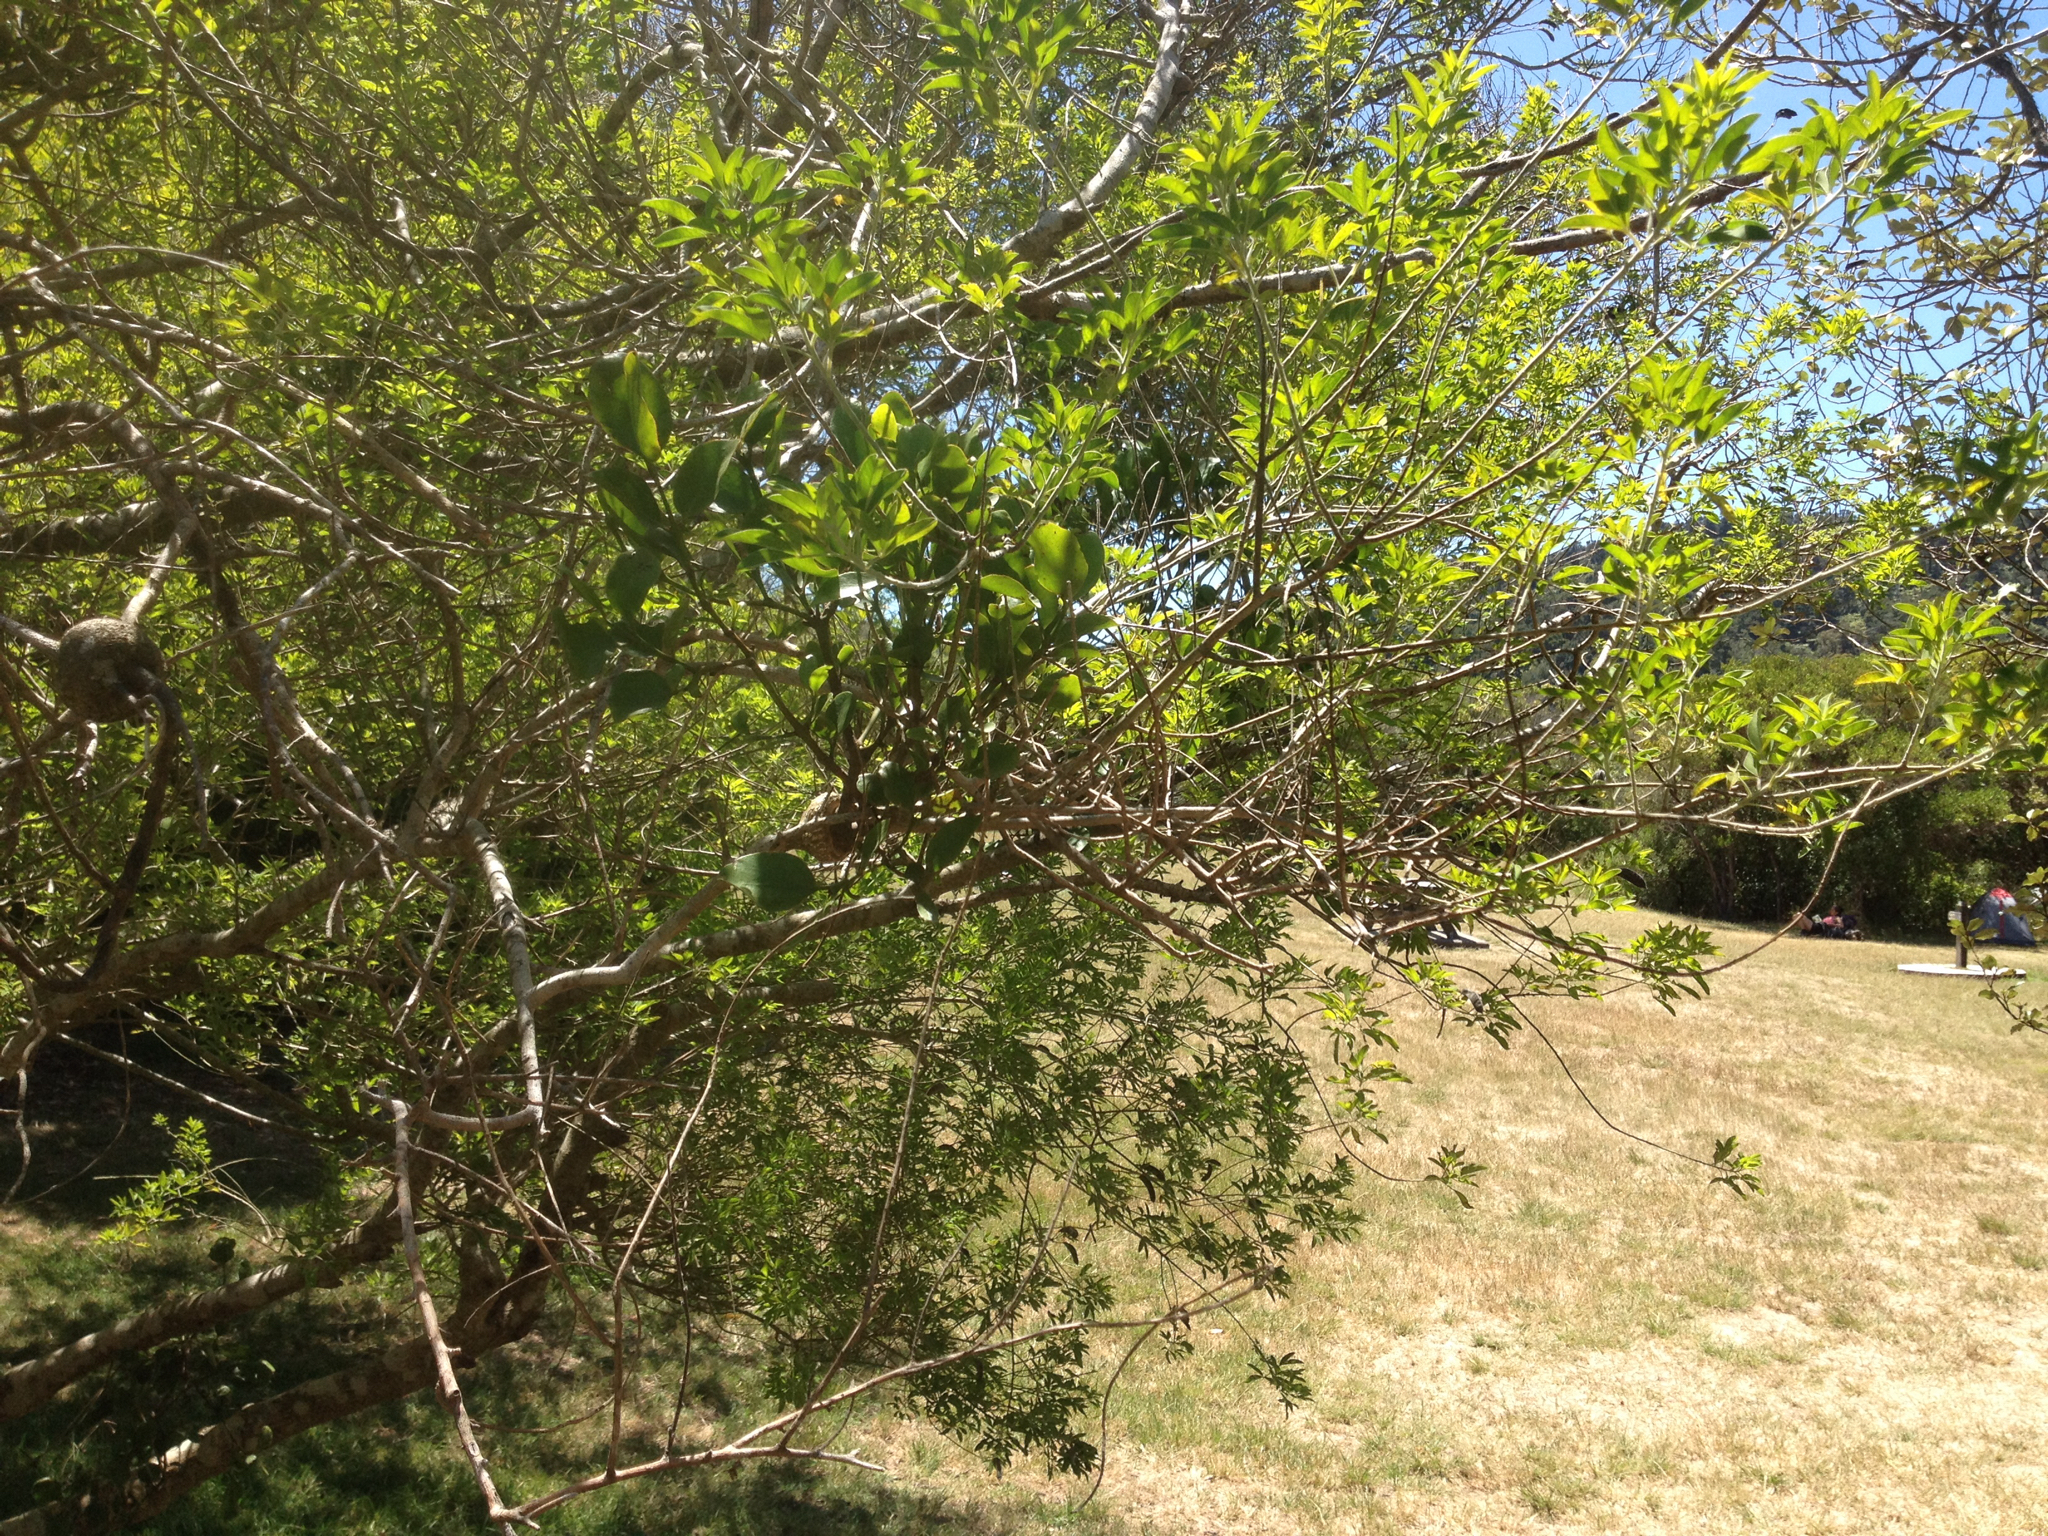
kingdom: Plantae
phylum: Tracheophyta
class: Magnoliopsida
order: Santalales
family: Loranthaceae
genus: Ileostylus
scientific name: Ileostylus micranthus
